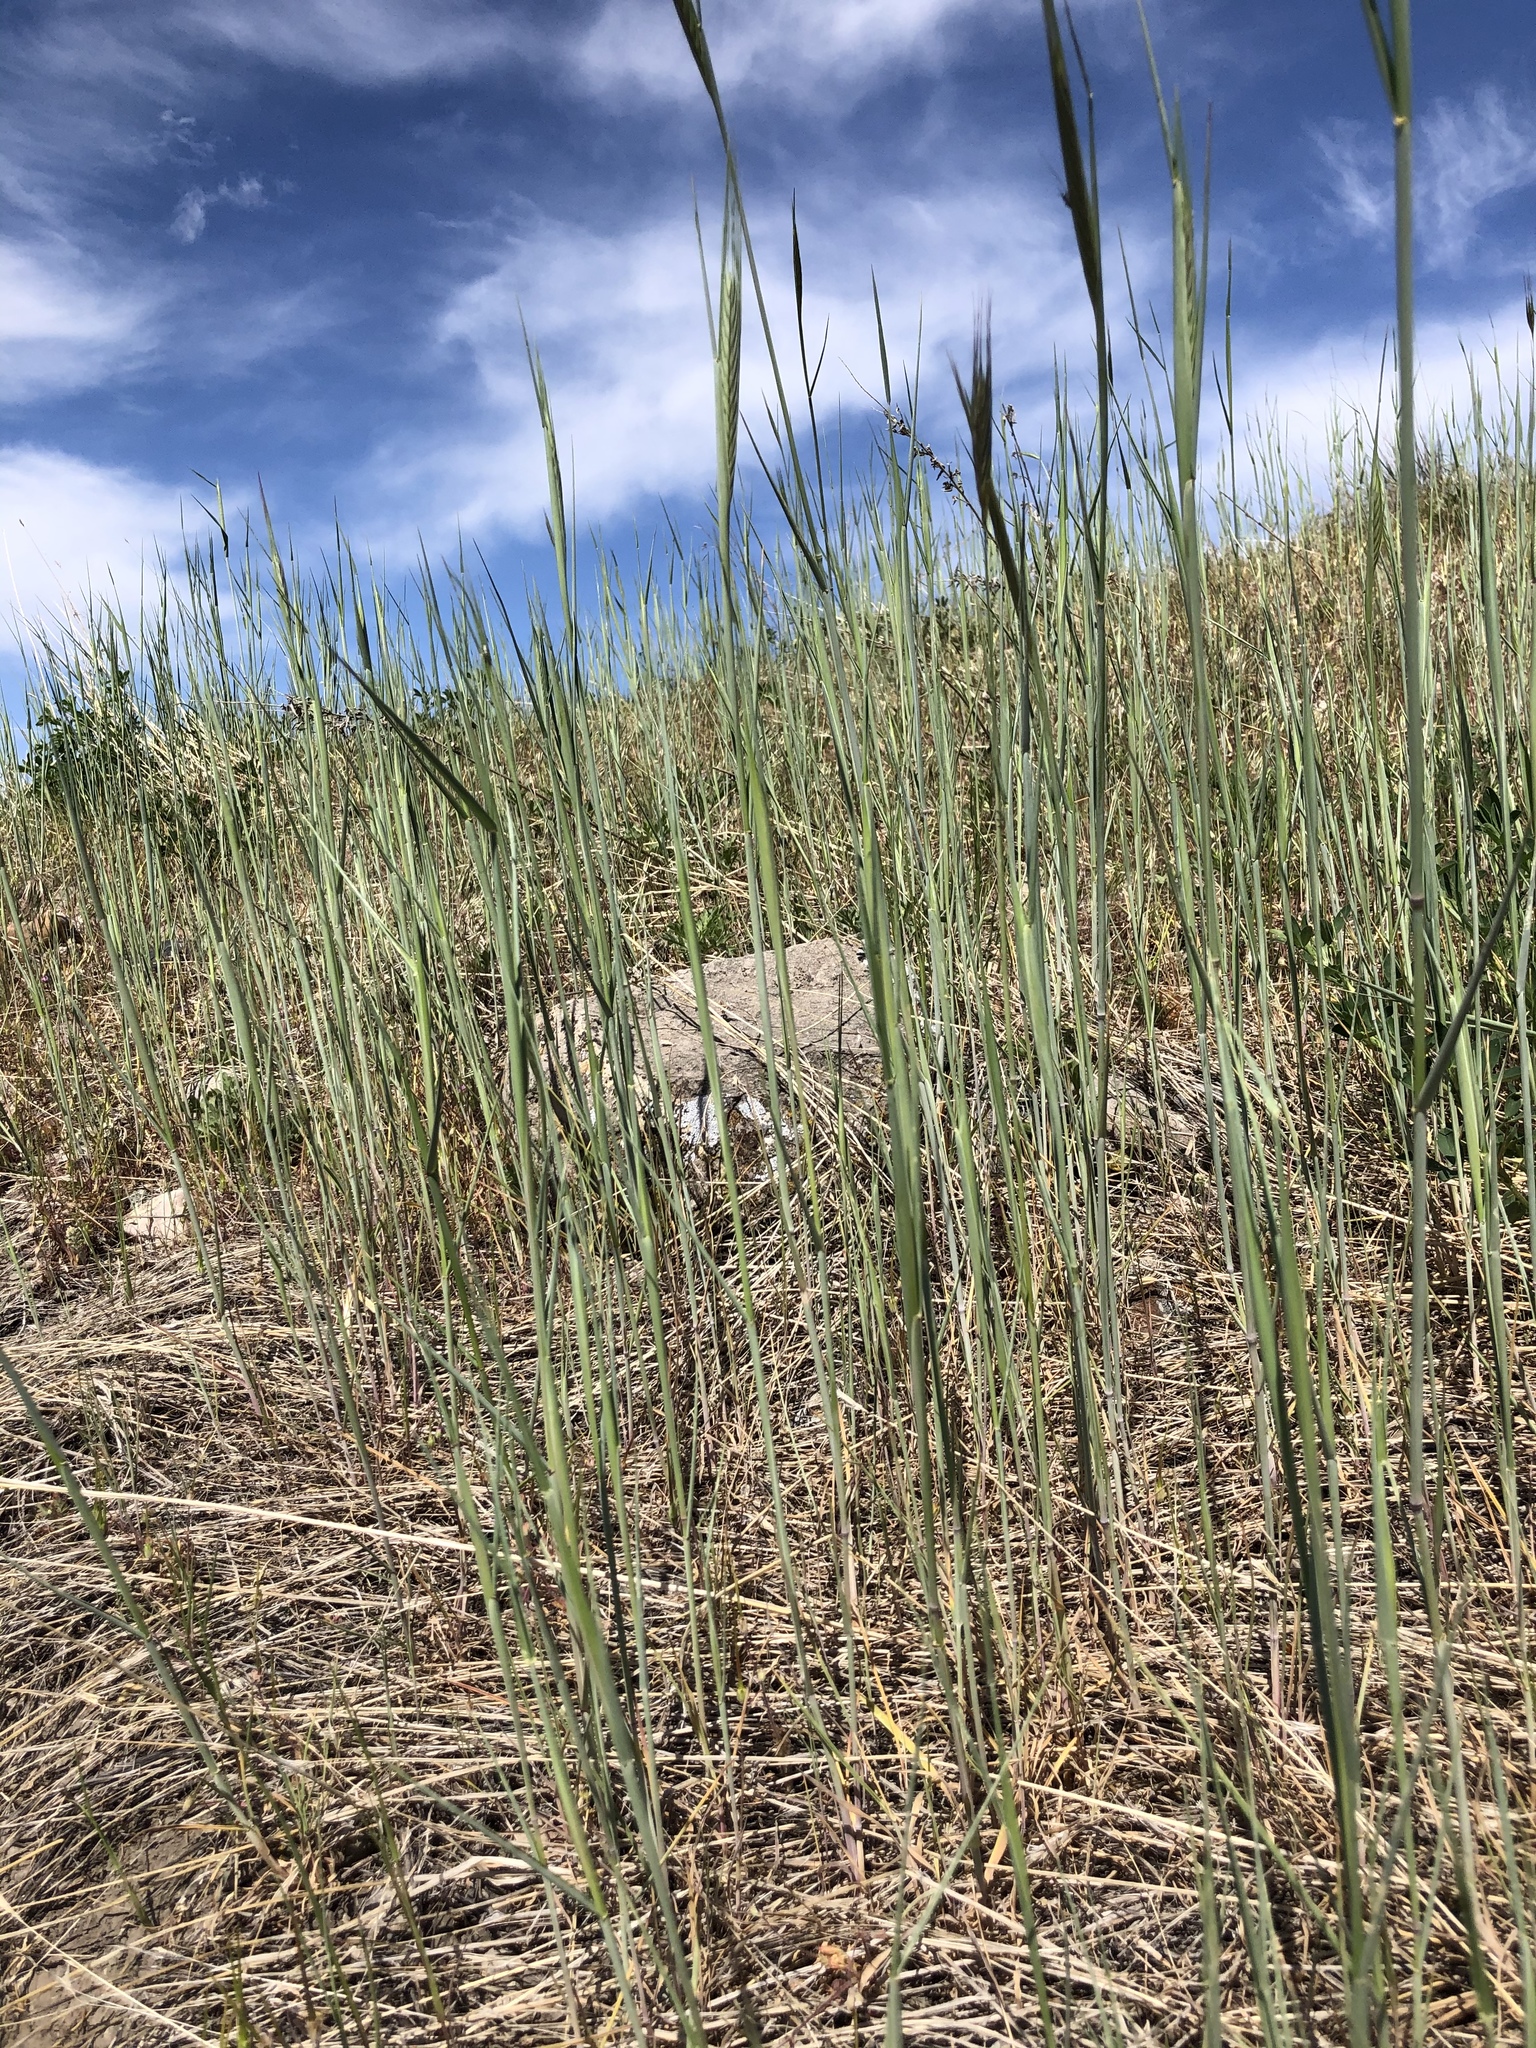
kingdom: Plantae
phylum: Tracheophyta
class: Liliopsida
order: Poales
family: Poaceae
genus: Secale
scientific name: Secale cereale
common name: Rye
